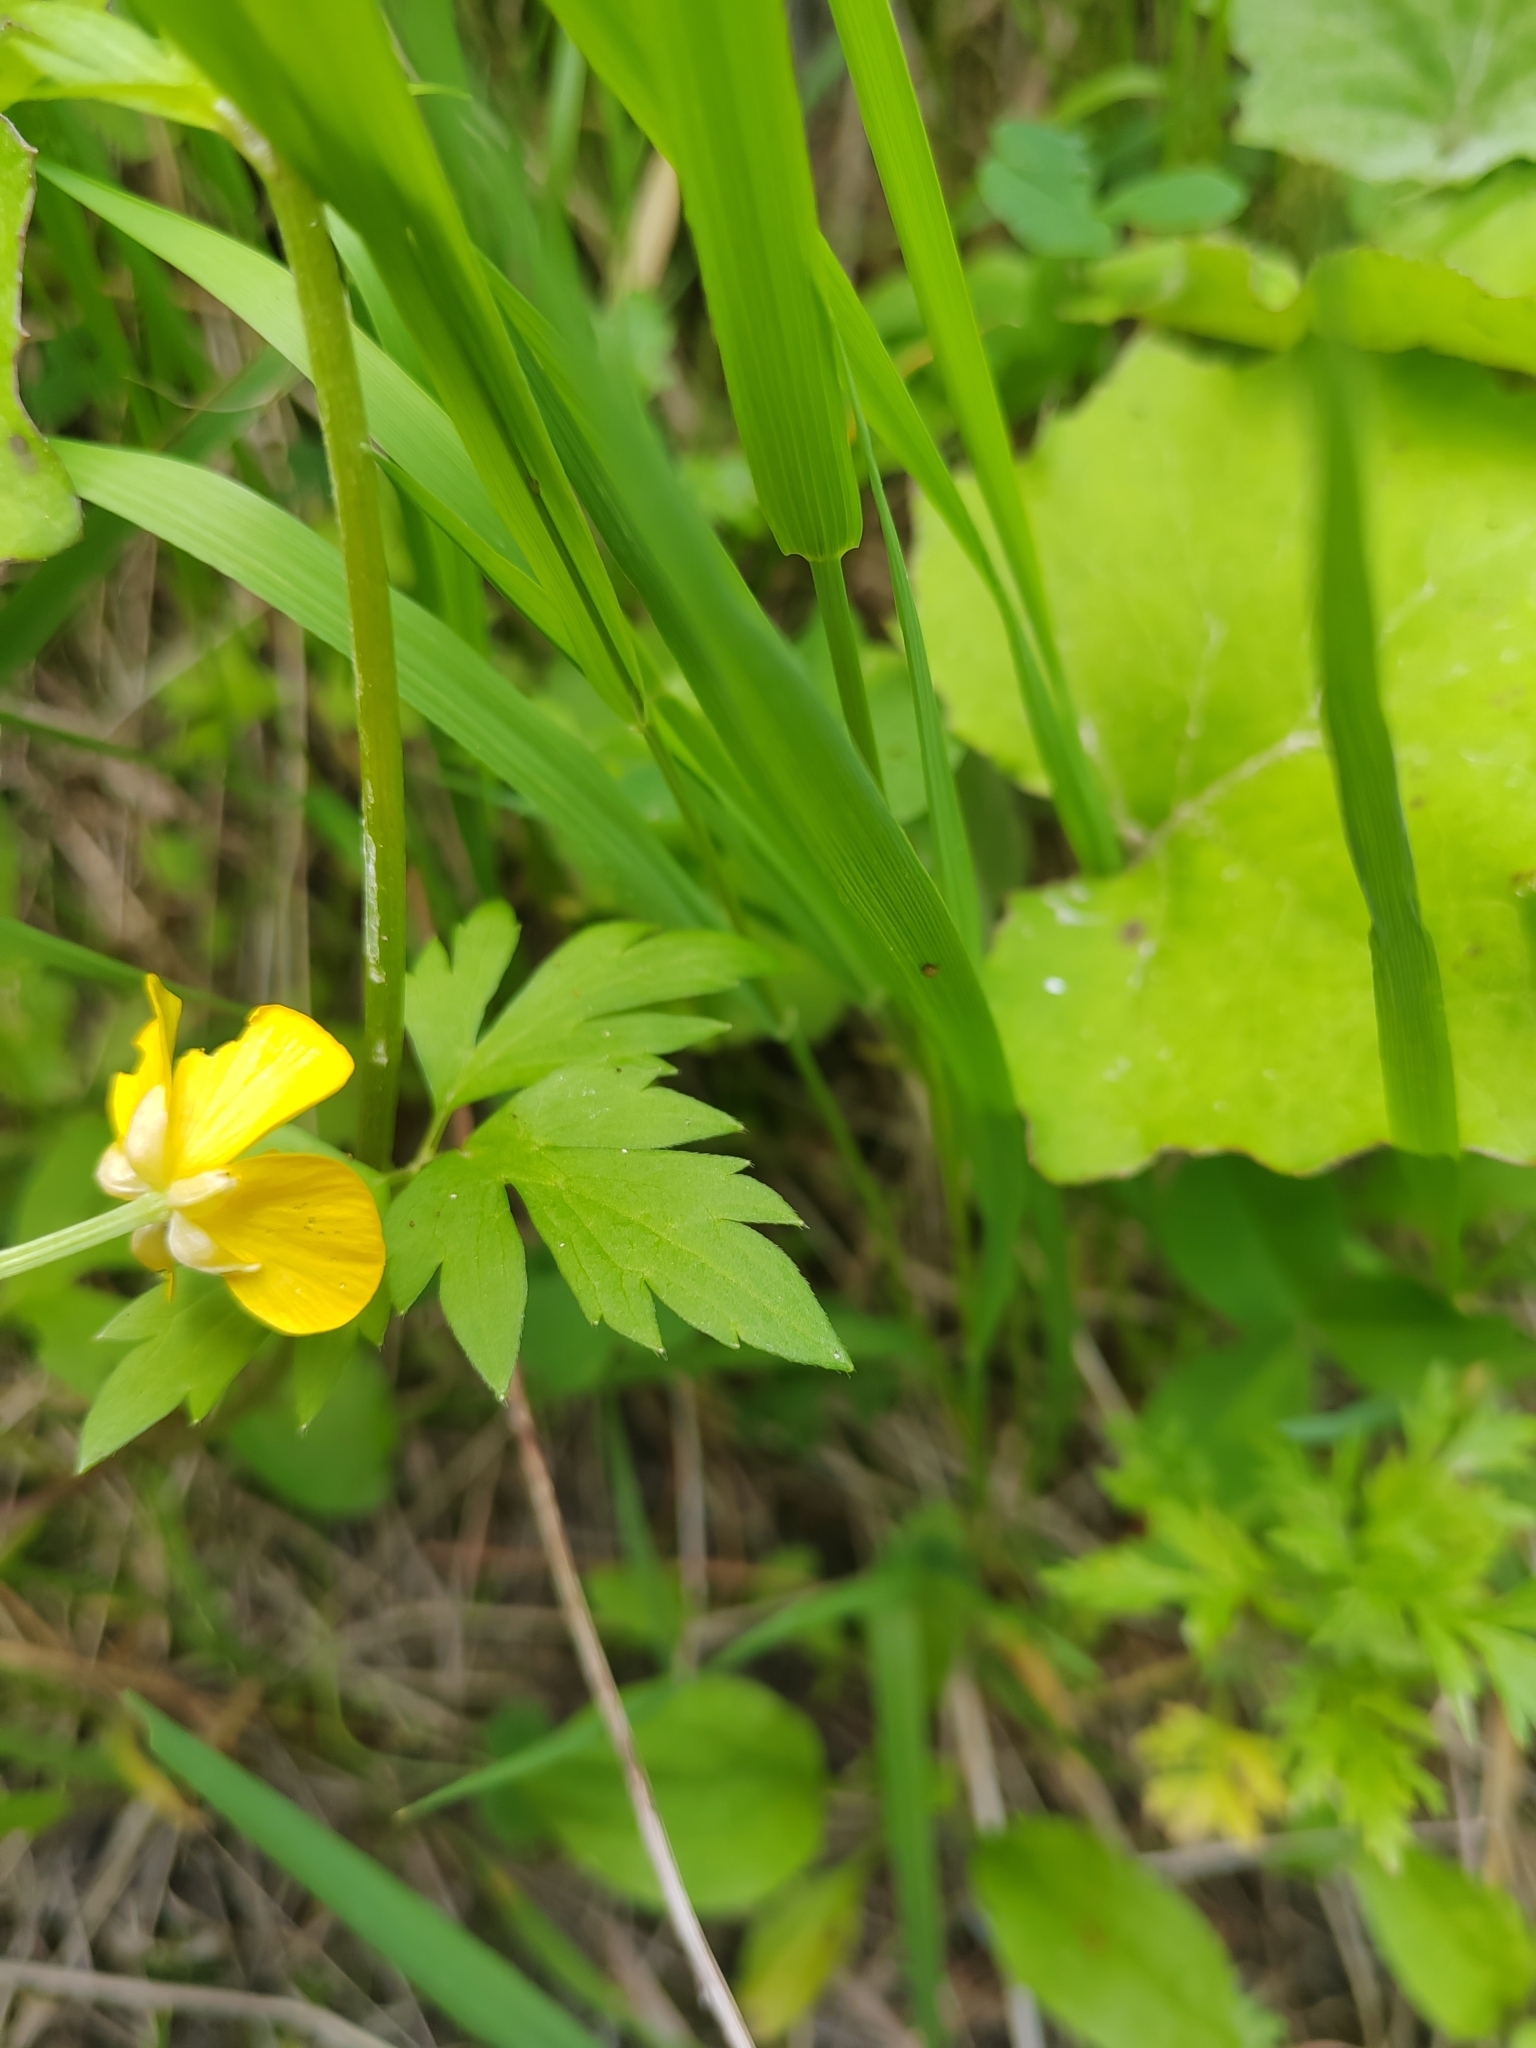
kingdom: Plantae
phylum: Tracheophyta
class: Magnoliopsida
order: Ranunculales
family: Ranunculaceae
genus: Ranunculus
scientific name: Ranunculus repens
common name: Creeping buttercup
